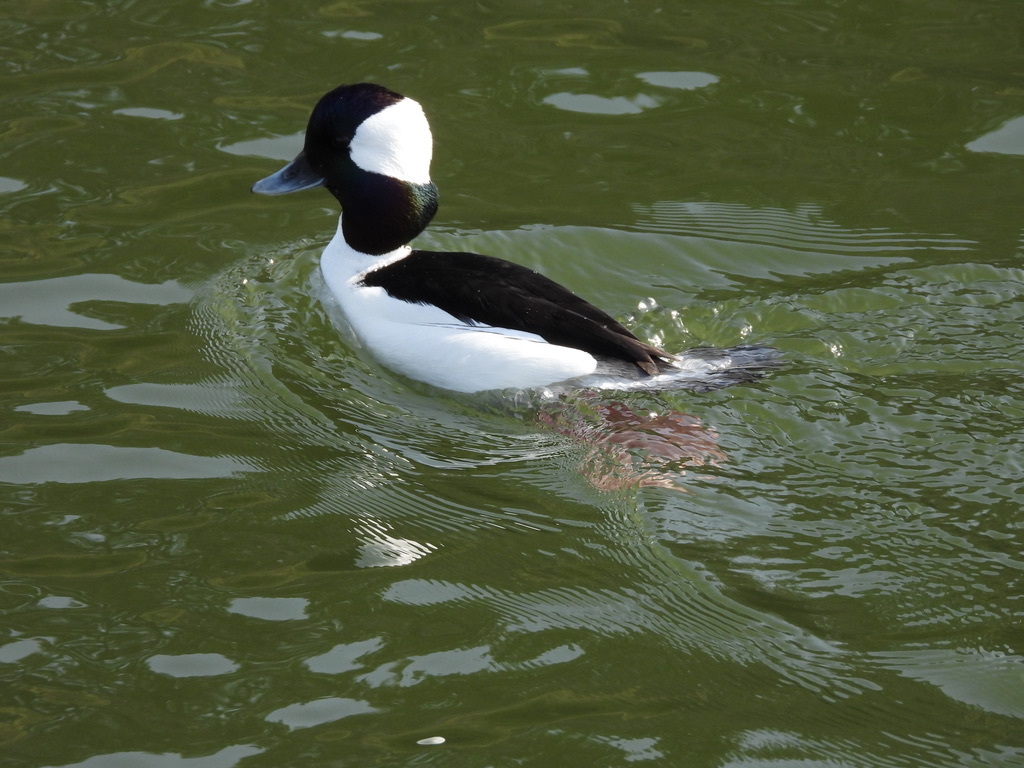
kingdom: Animalia
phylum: Chordata
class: Aves
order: Anseriformes
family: Anatidae
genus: Bucephala
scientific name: Bucephala albeola
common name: Bufflehead
